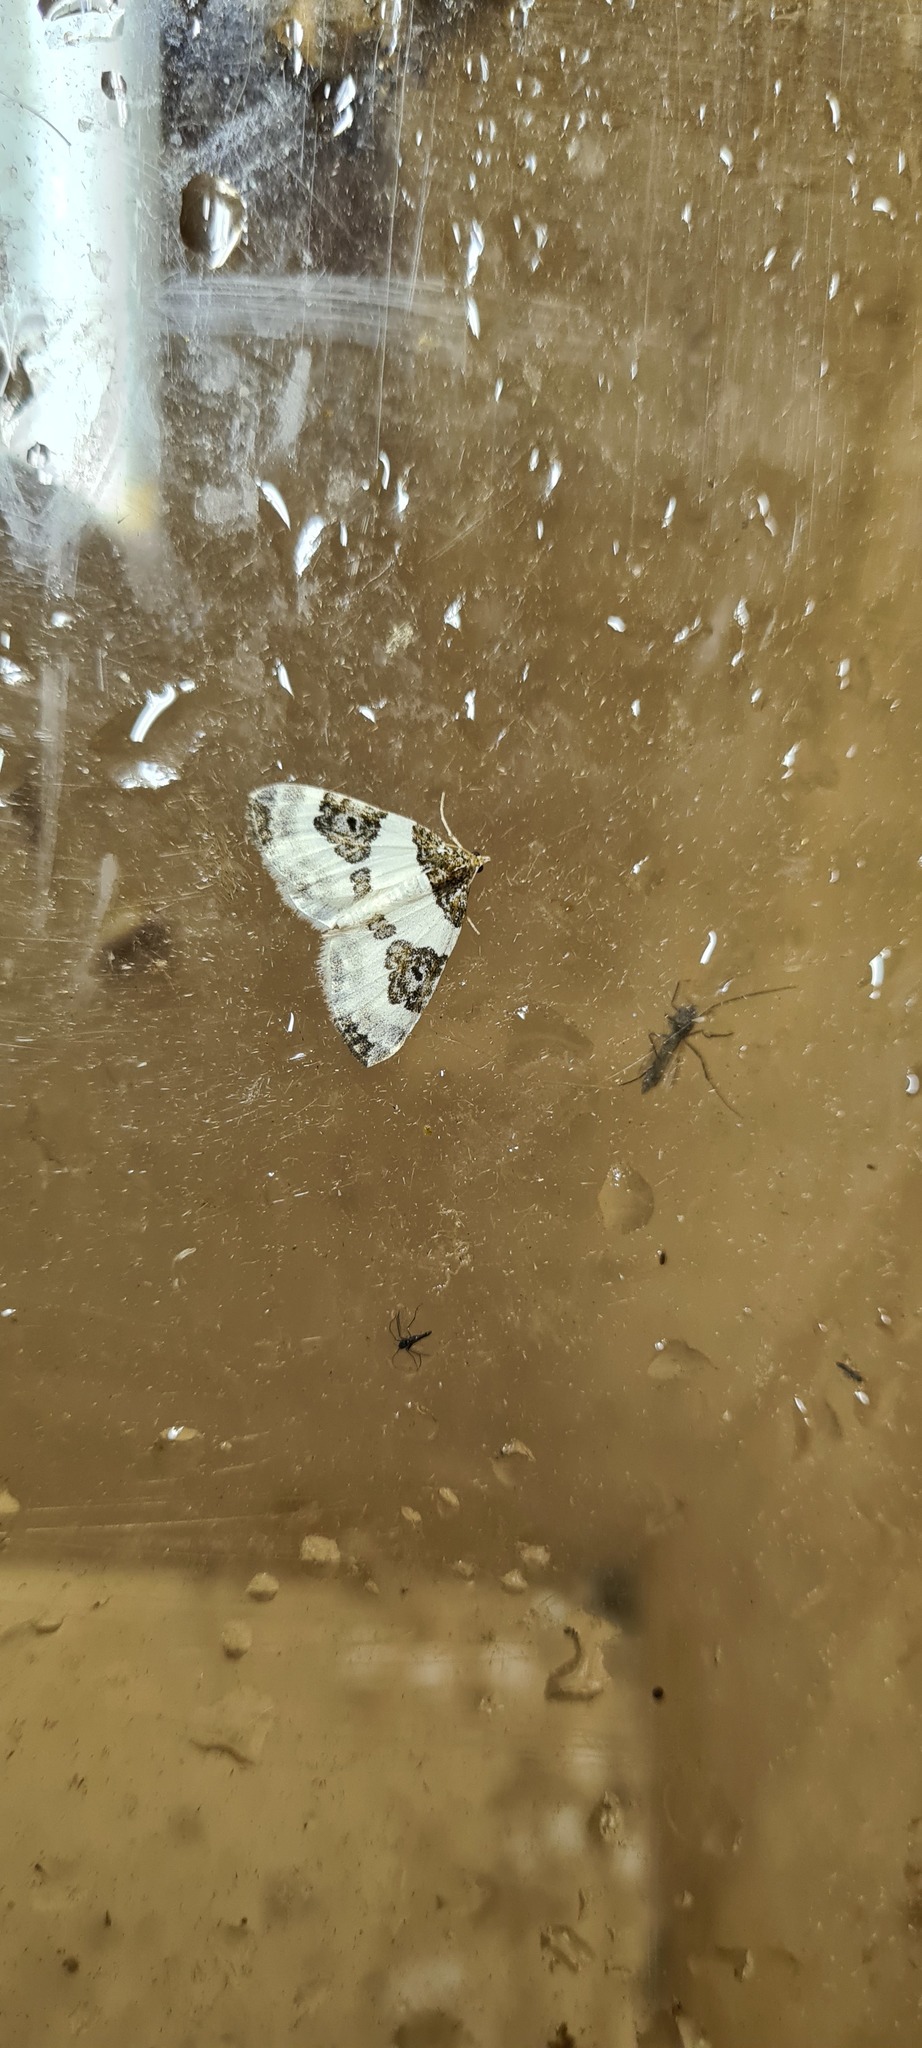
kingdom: Animalia
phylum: Arthropoda
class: Insecta
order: Lepidoptera
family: Geometridae
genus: Plemyria
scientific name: Plemyria rubiginata
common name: Blue-bordered carpet
